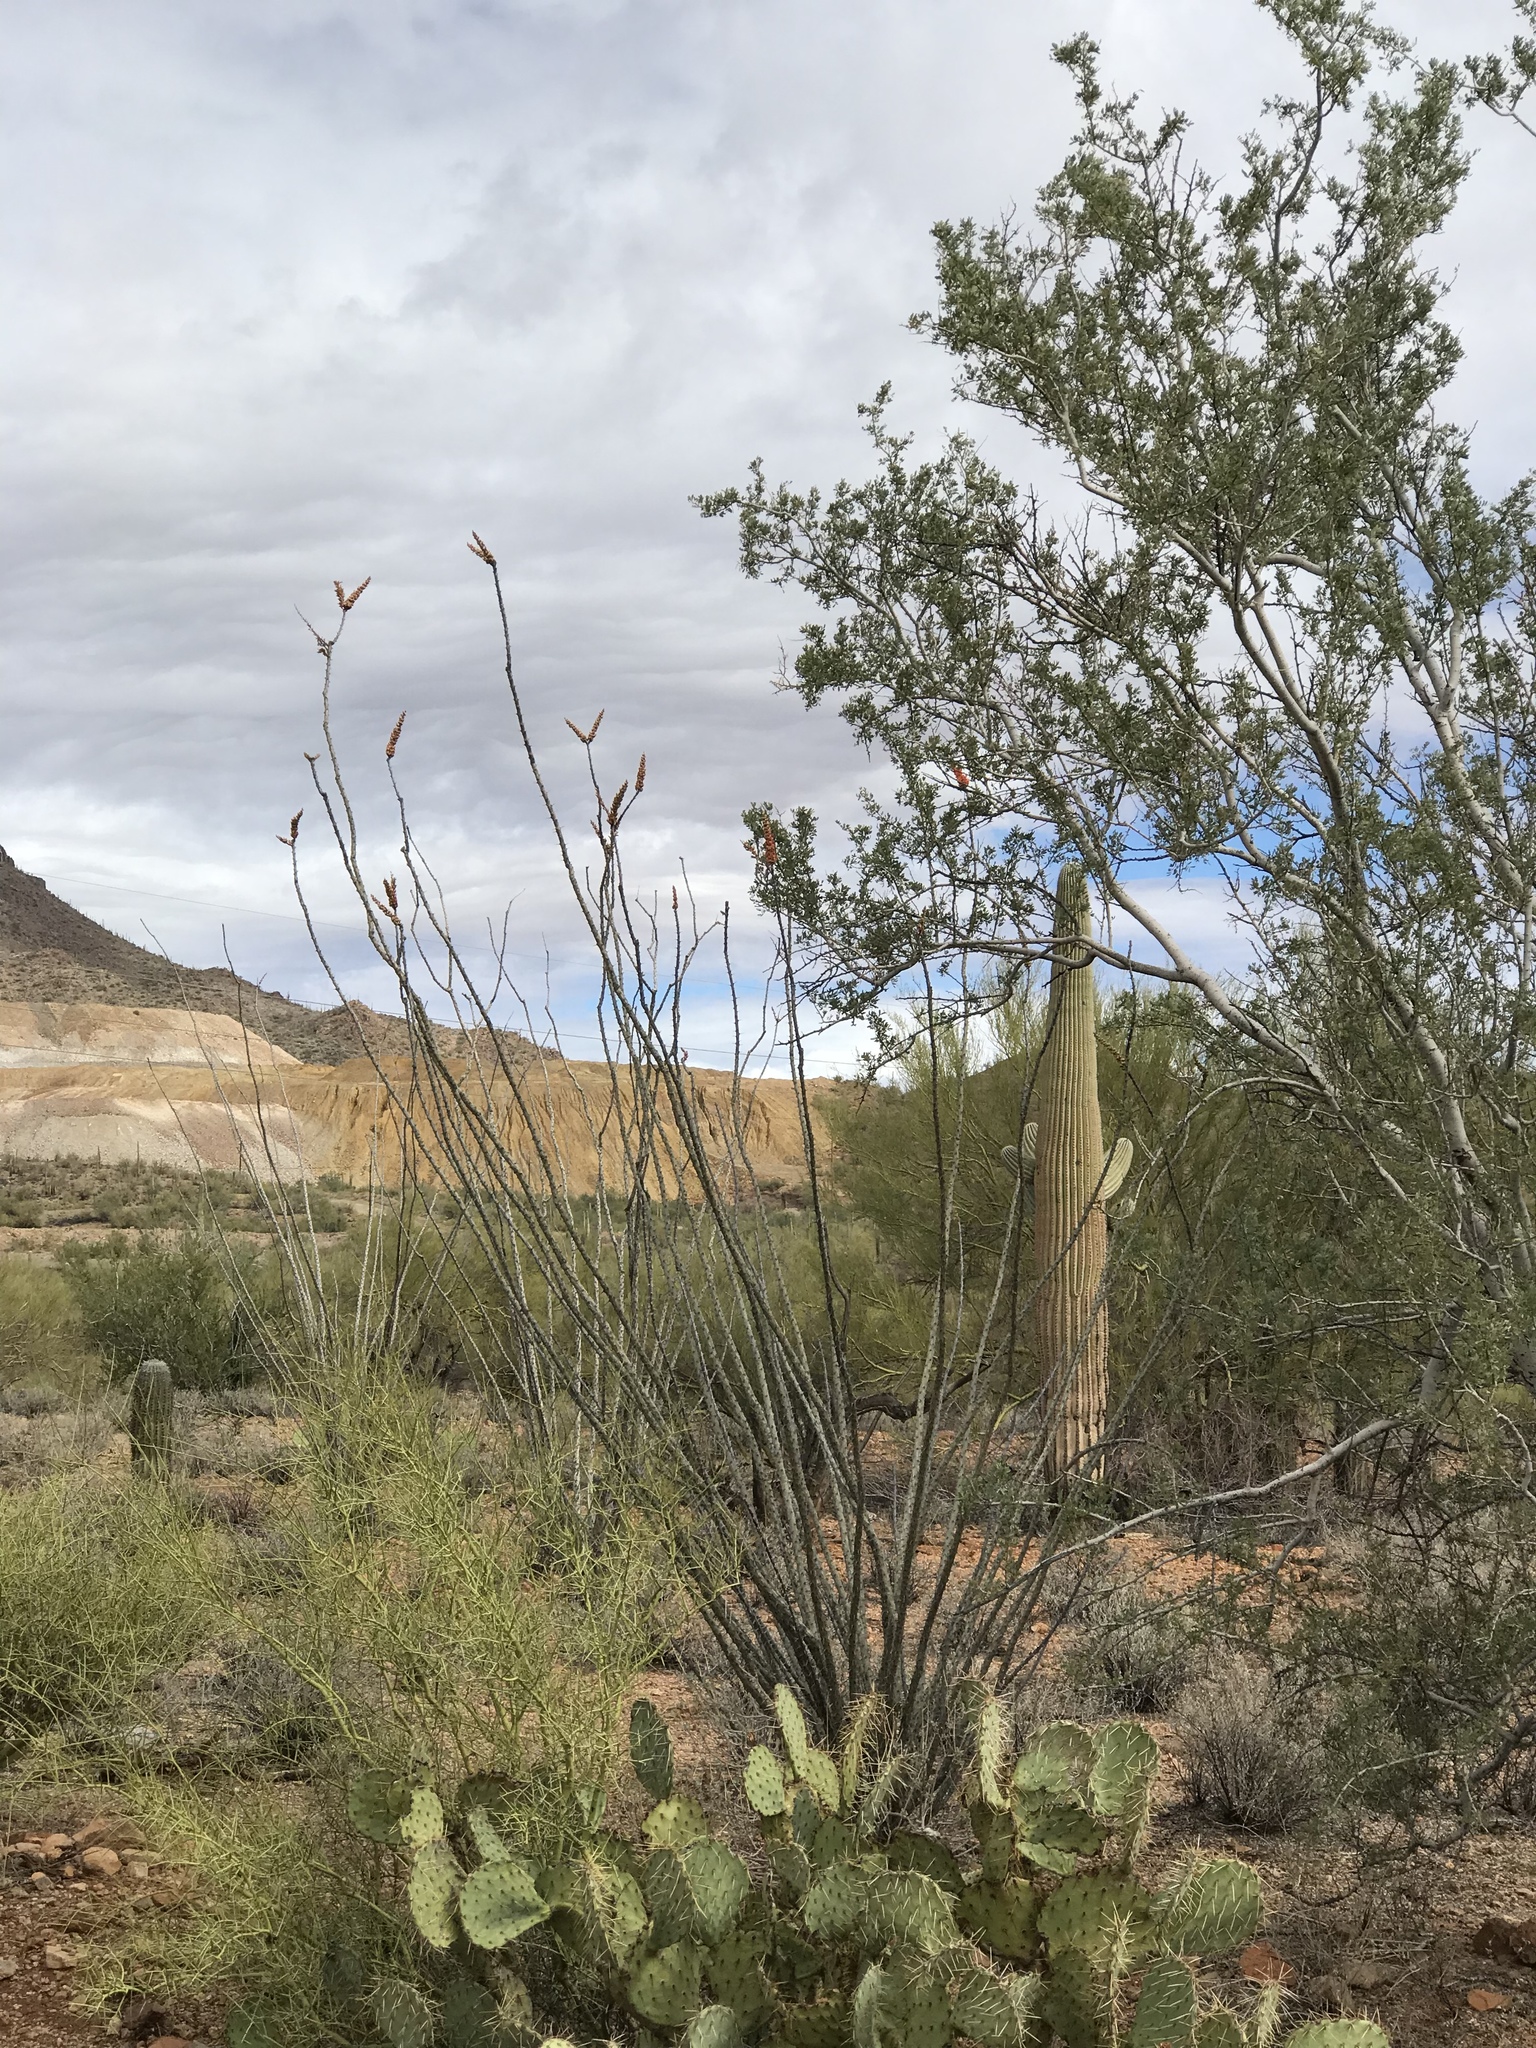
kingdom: Plantae
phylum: Tracheophyta
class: Magnoliopsida
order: Ericales
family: Fouquieriaceae
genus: Fouquieria
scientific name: Fouquieria splendens
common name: Vine-cactus
